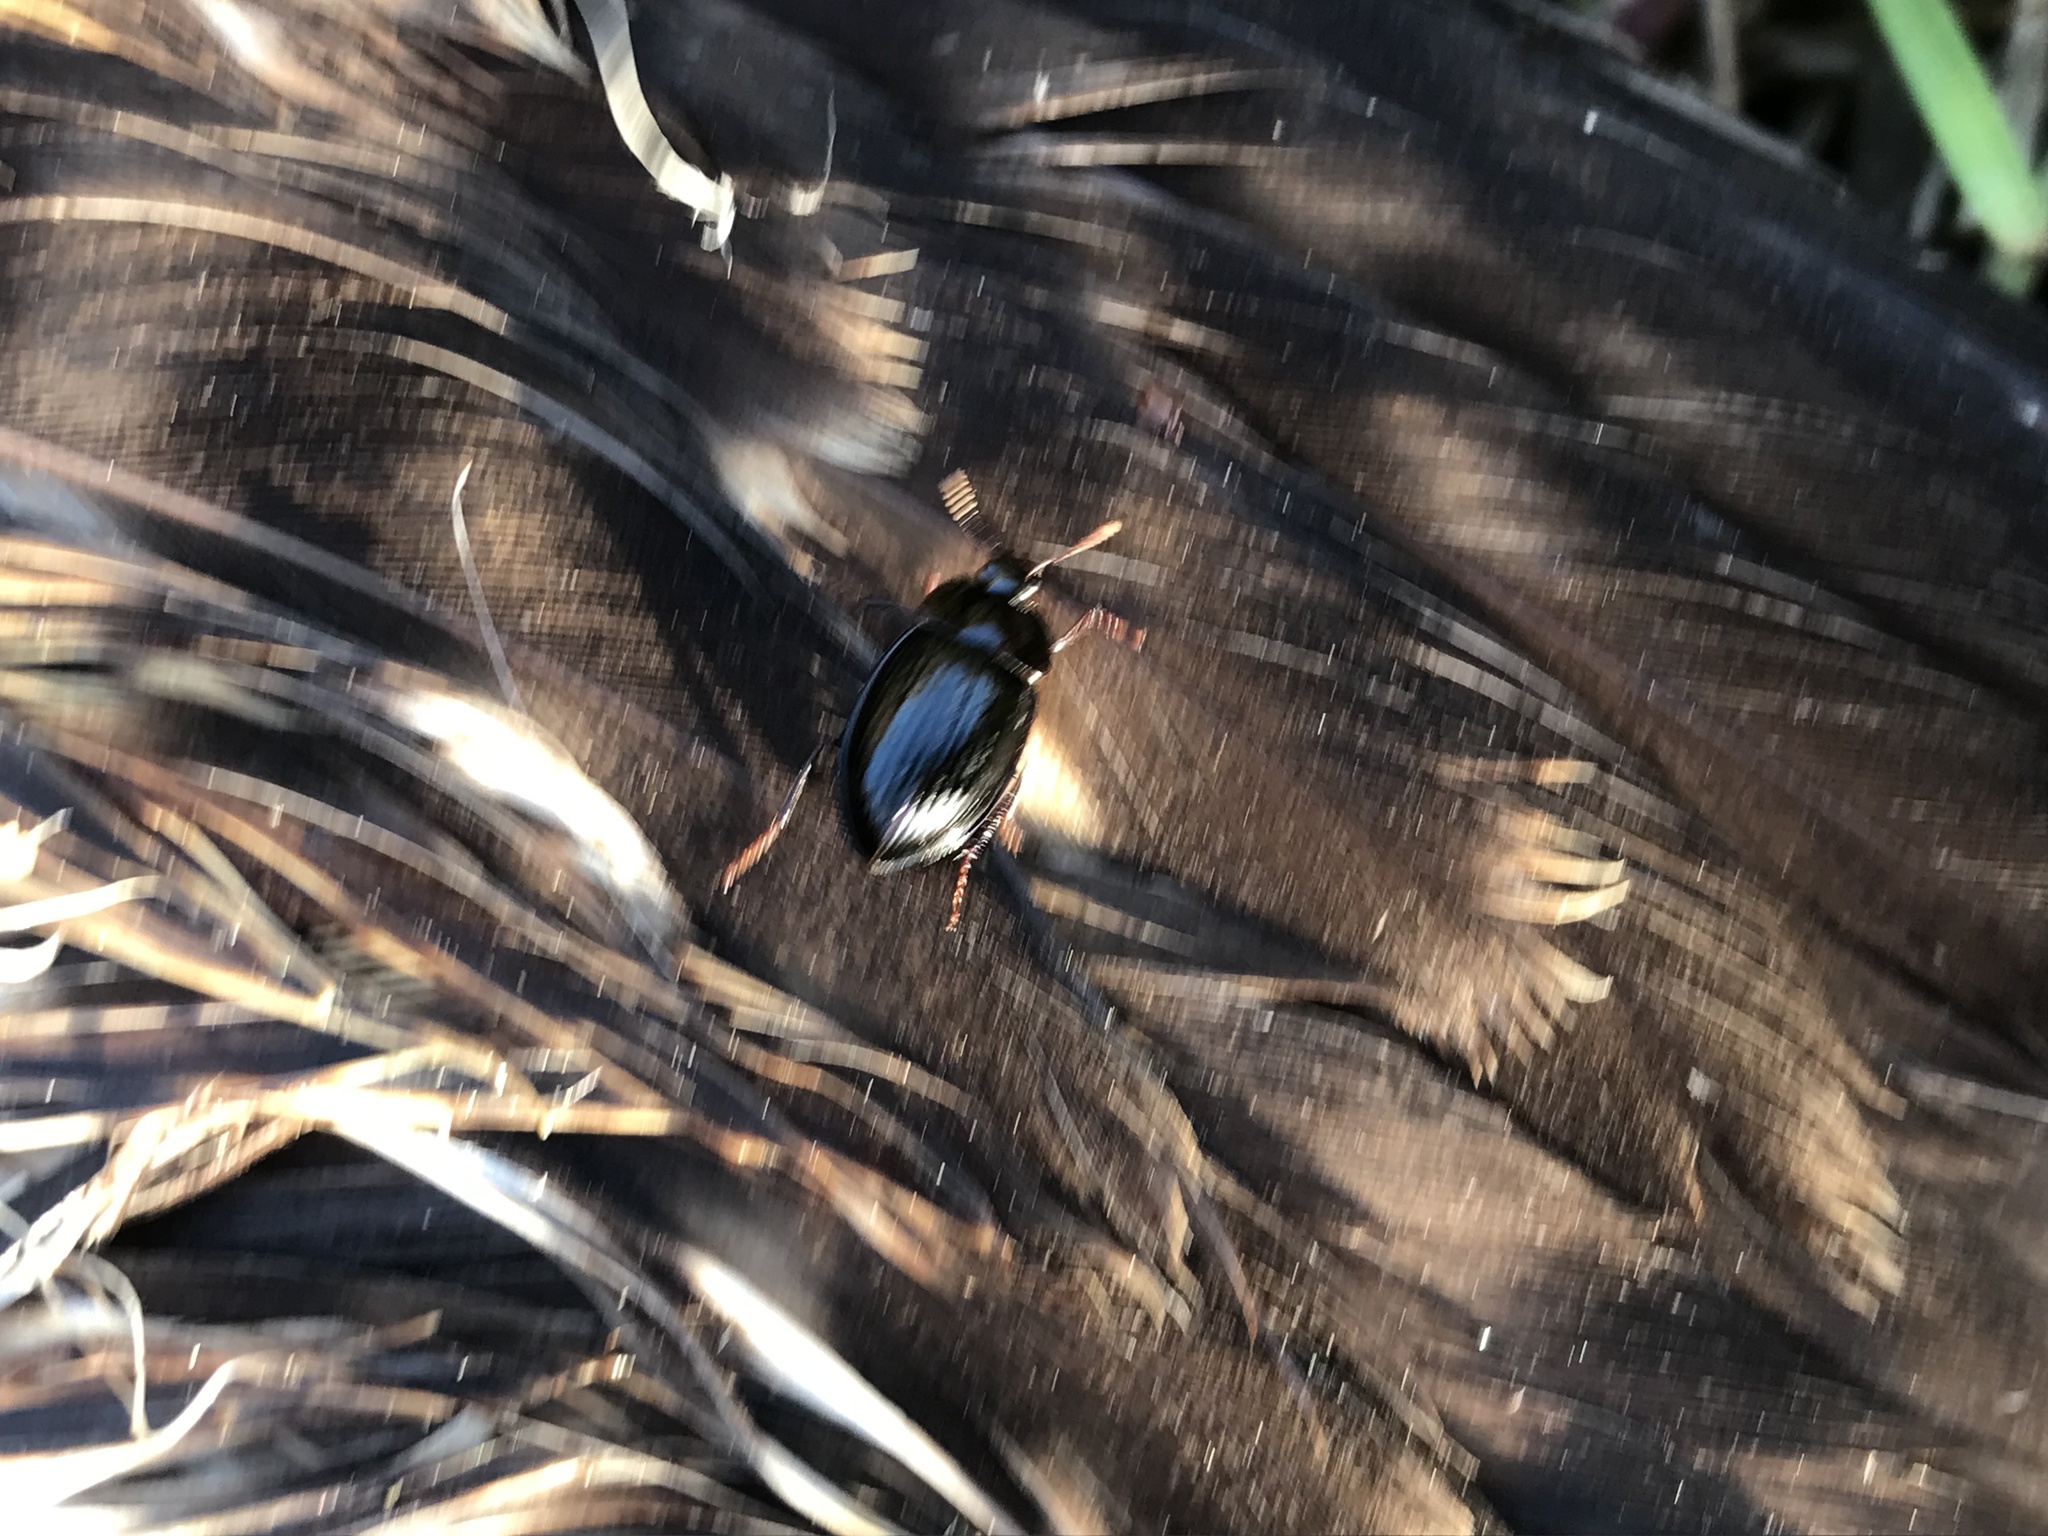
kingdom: Animalia
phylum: Arthropoda
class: Insecta
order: Coleoptera
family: Agyrtidae
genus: Necrophilus
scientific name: Necrophilus hydrophiloides
